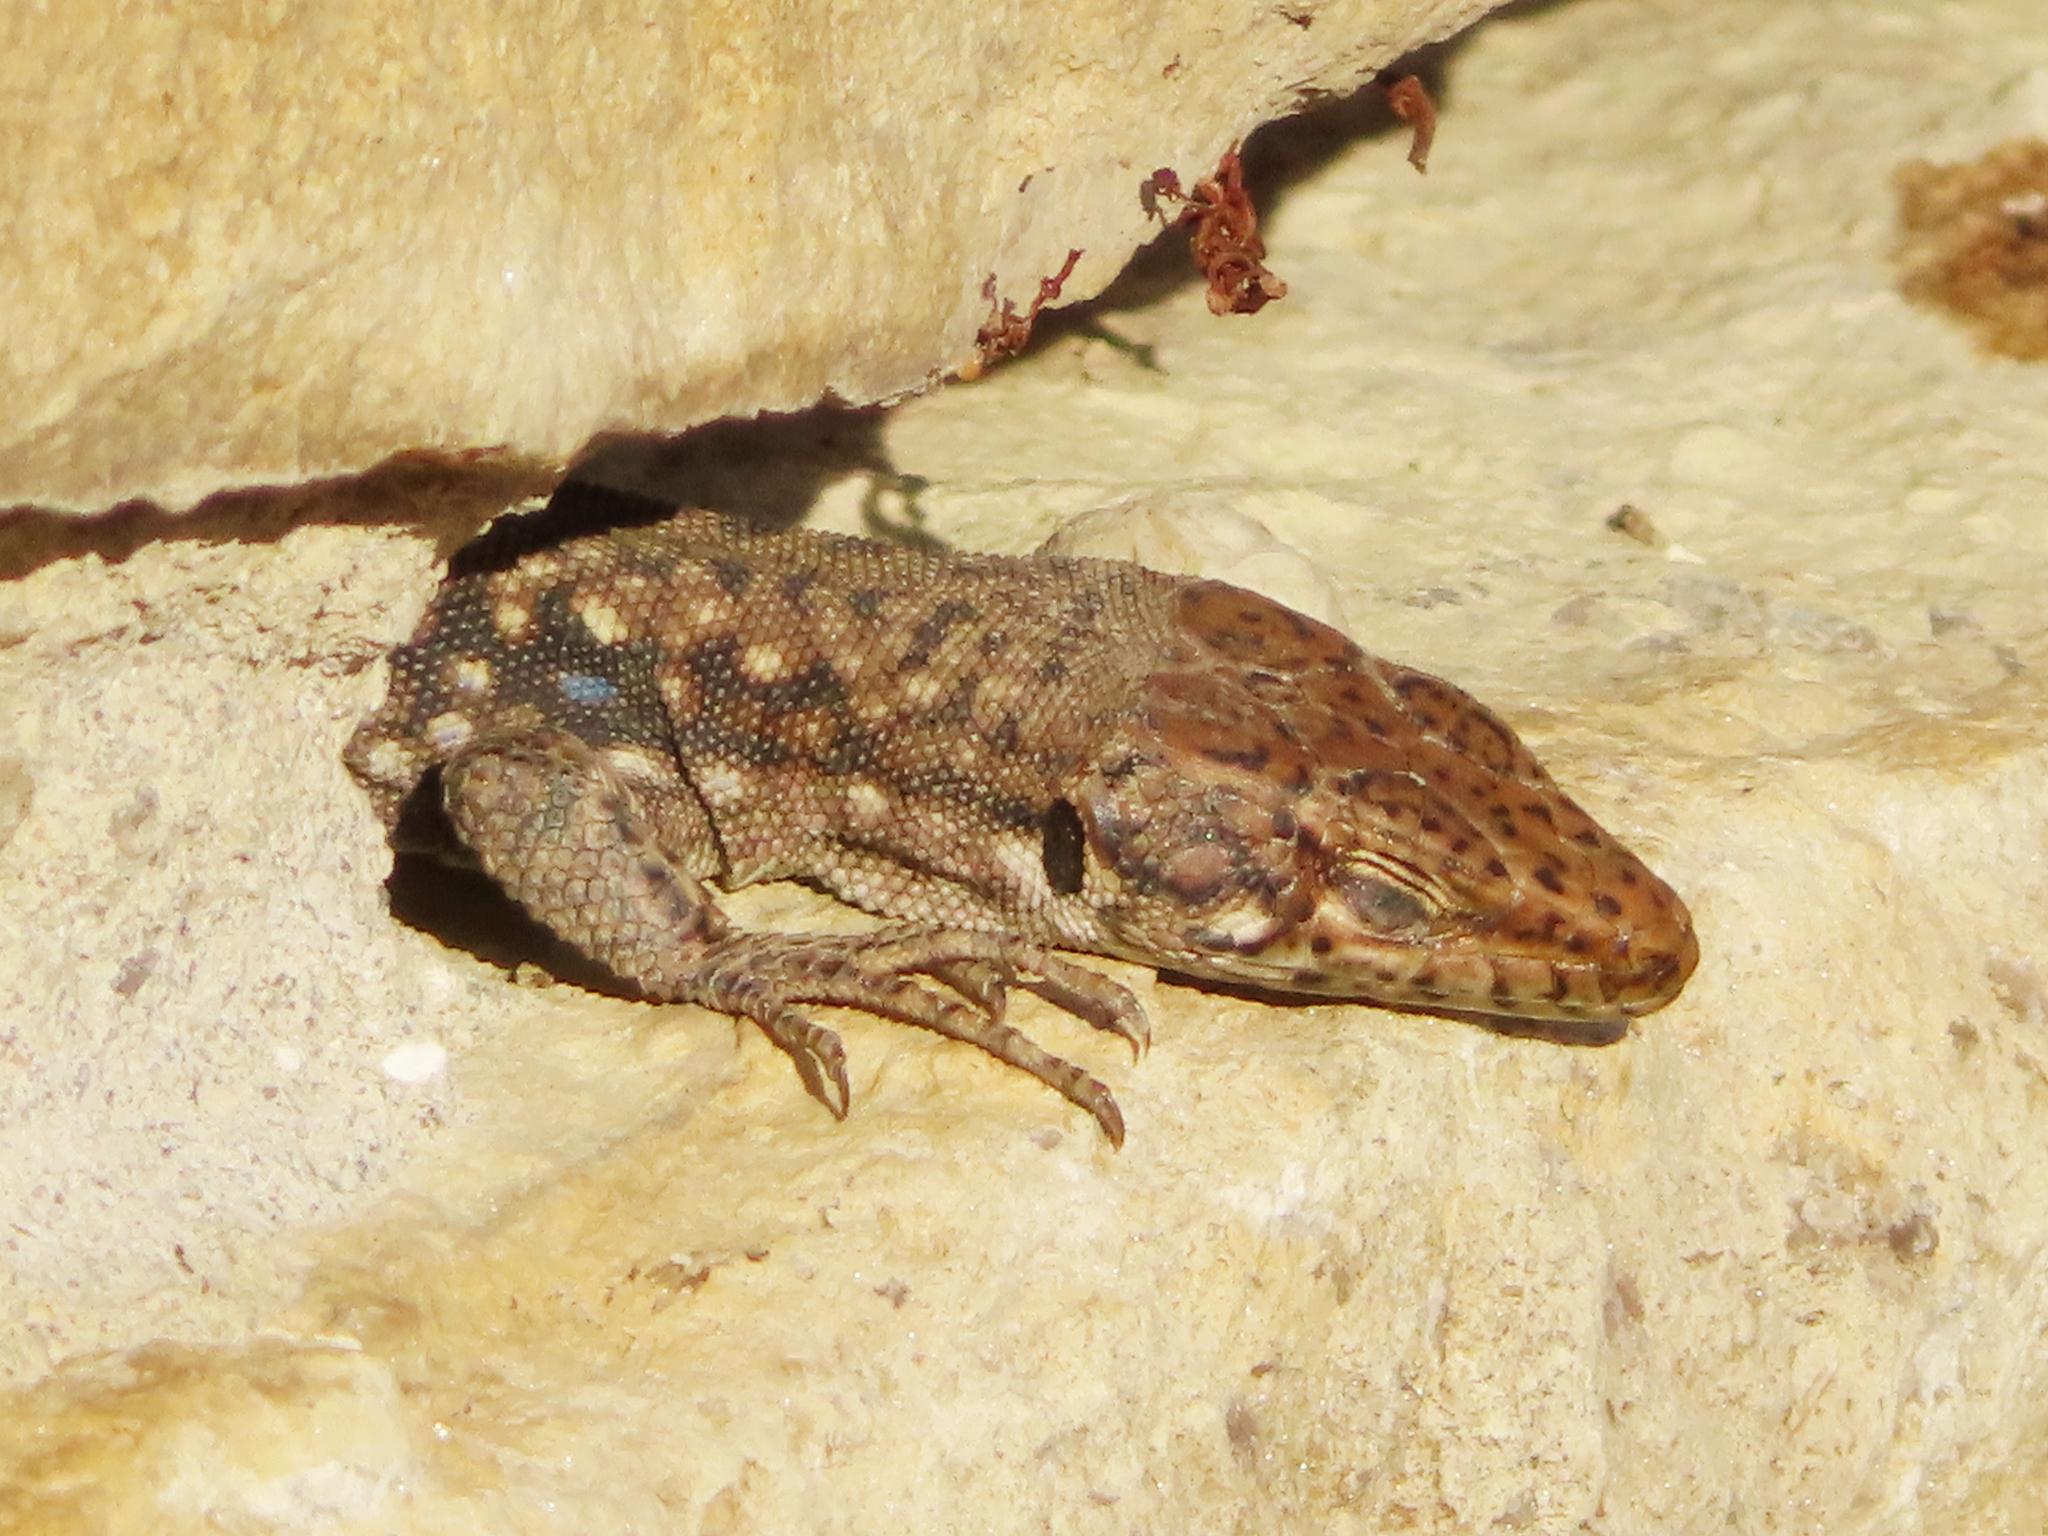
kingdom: Animalia
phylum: Chordata
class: Squamata
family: Lacertidae
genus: Darevskia
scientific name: Darevskia rudis
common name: Spiny-tailed lizard
